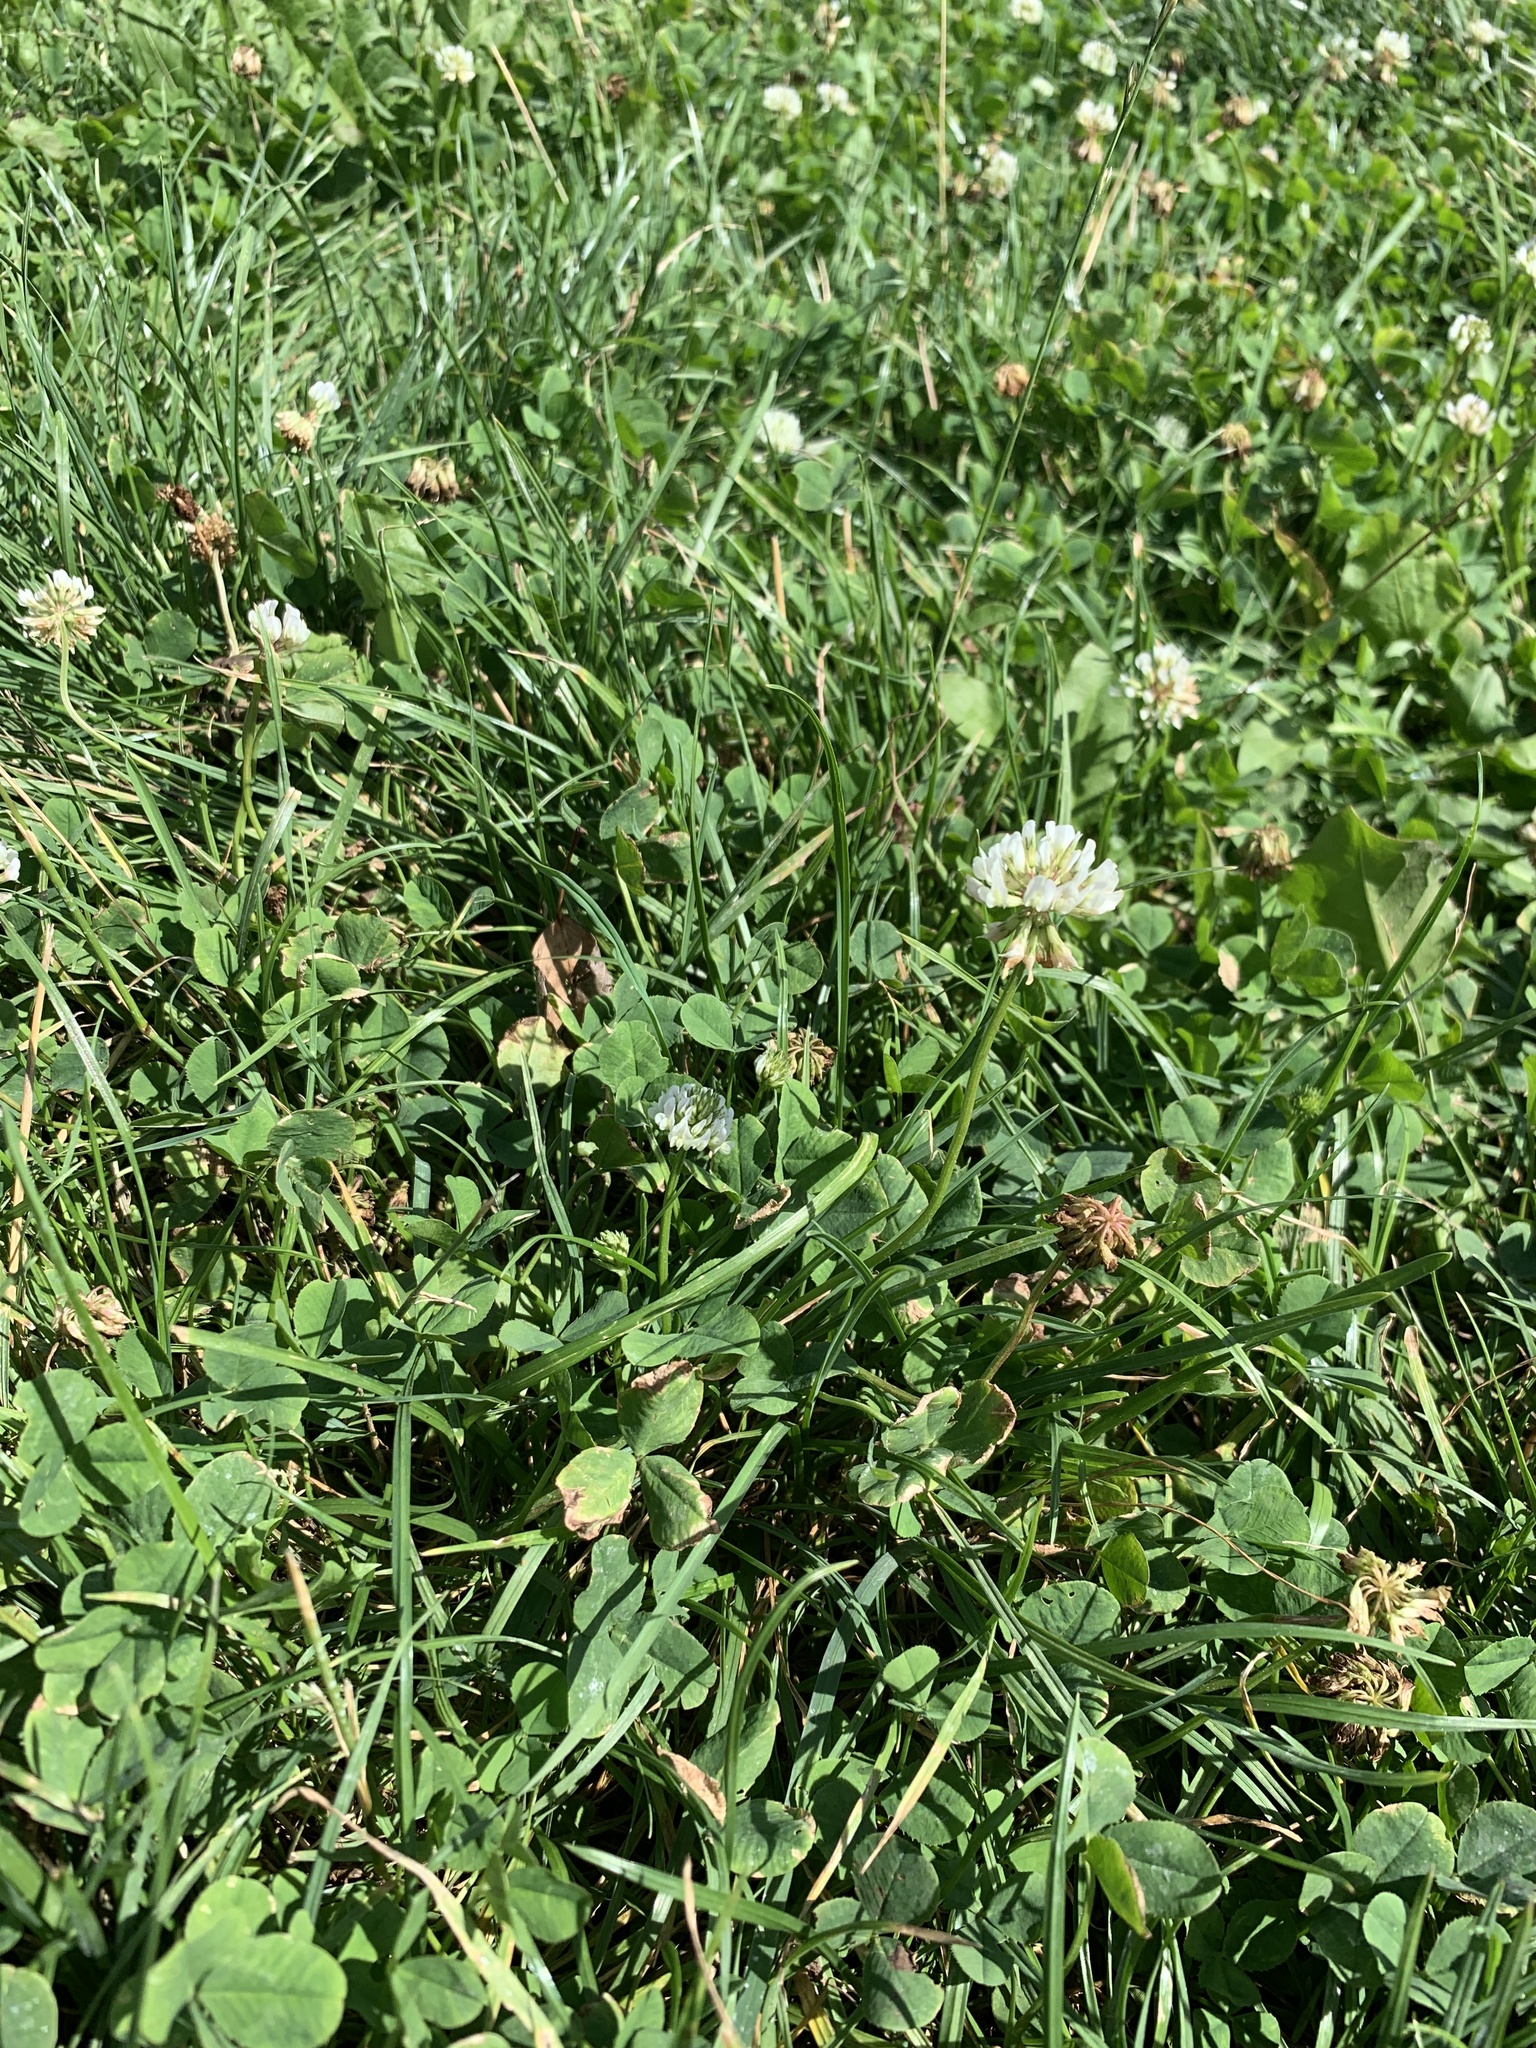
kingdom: Plantae
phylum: Tracheophyta
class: Magnoliopsida
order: Fabales
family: Fabaceae
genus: Trifolium
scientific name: Trifolium repens
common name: White clover
